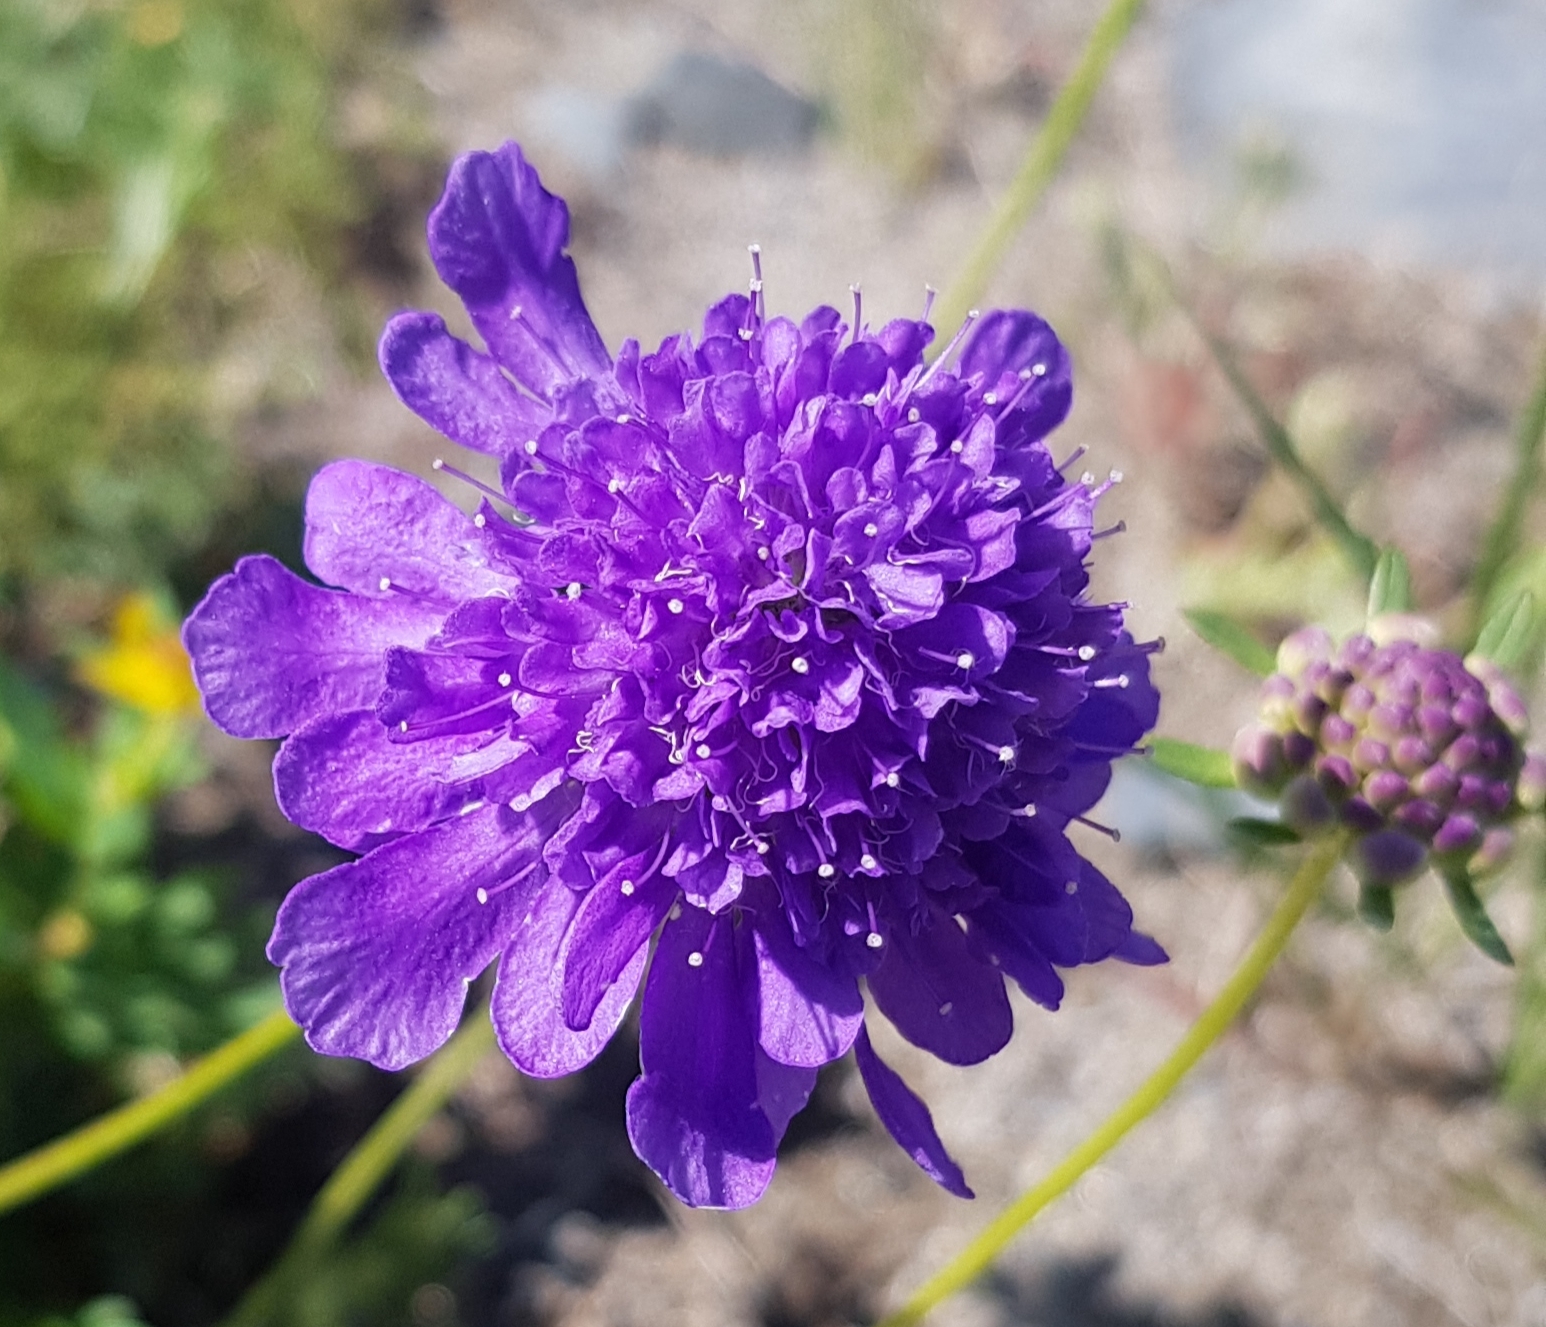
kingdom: Plantae
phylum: Tracheophyta
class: Magnoliopsida
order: Dipsacales
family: Caprifoliaceae
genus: Scabiosa
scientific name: Scabiosa comosa
